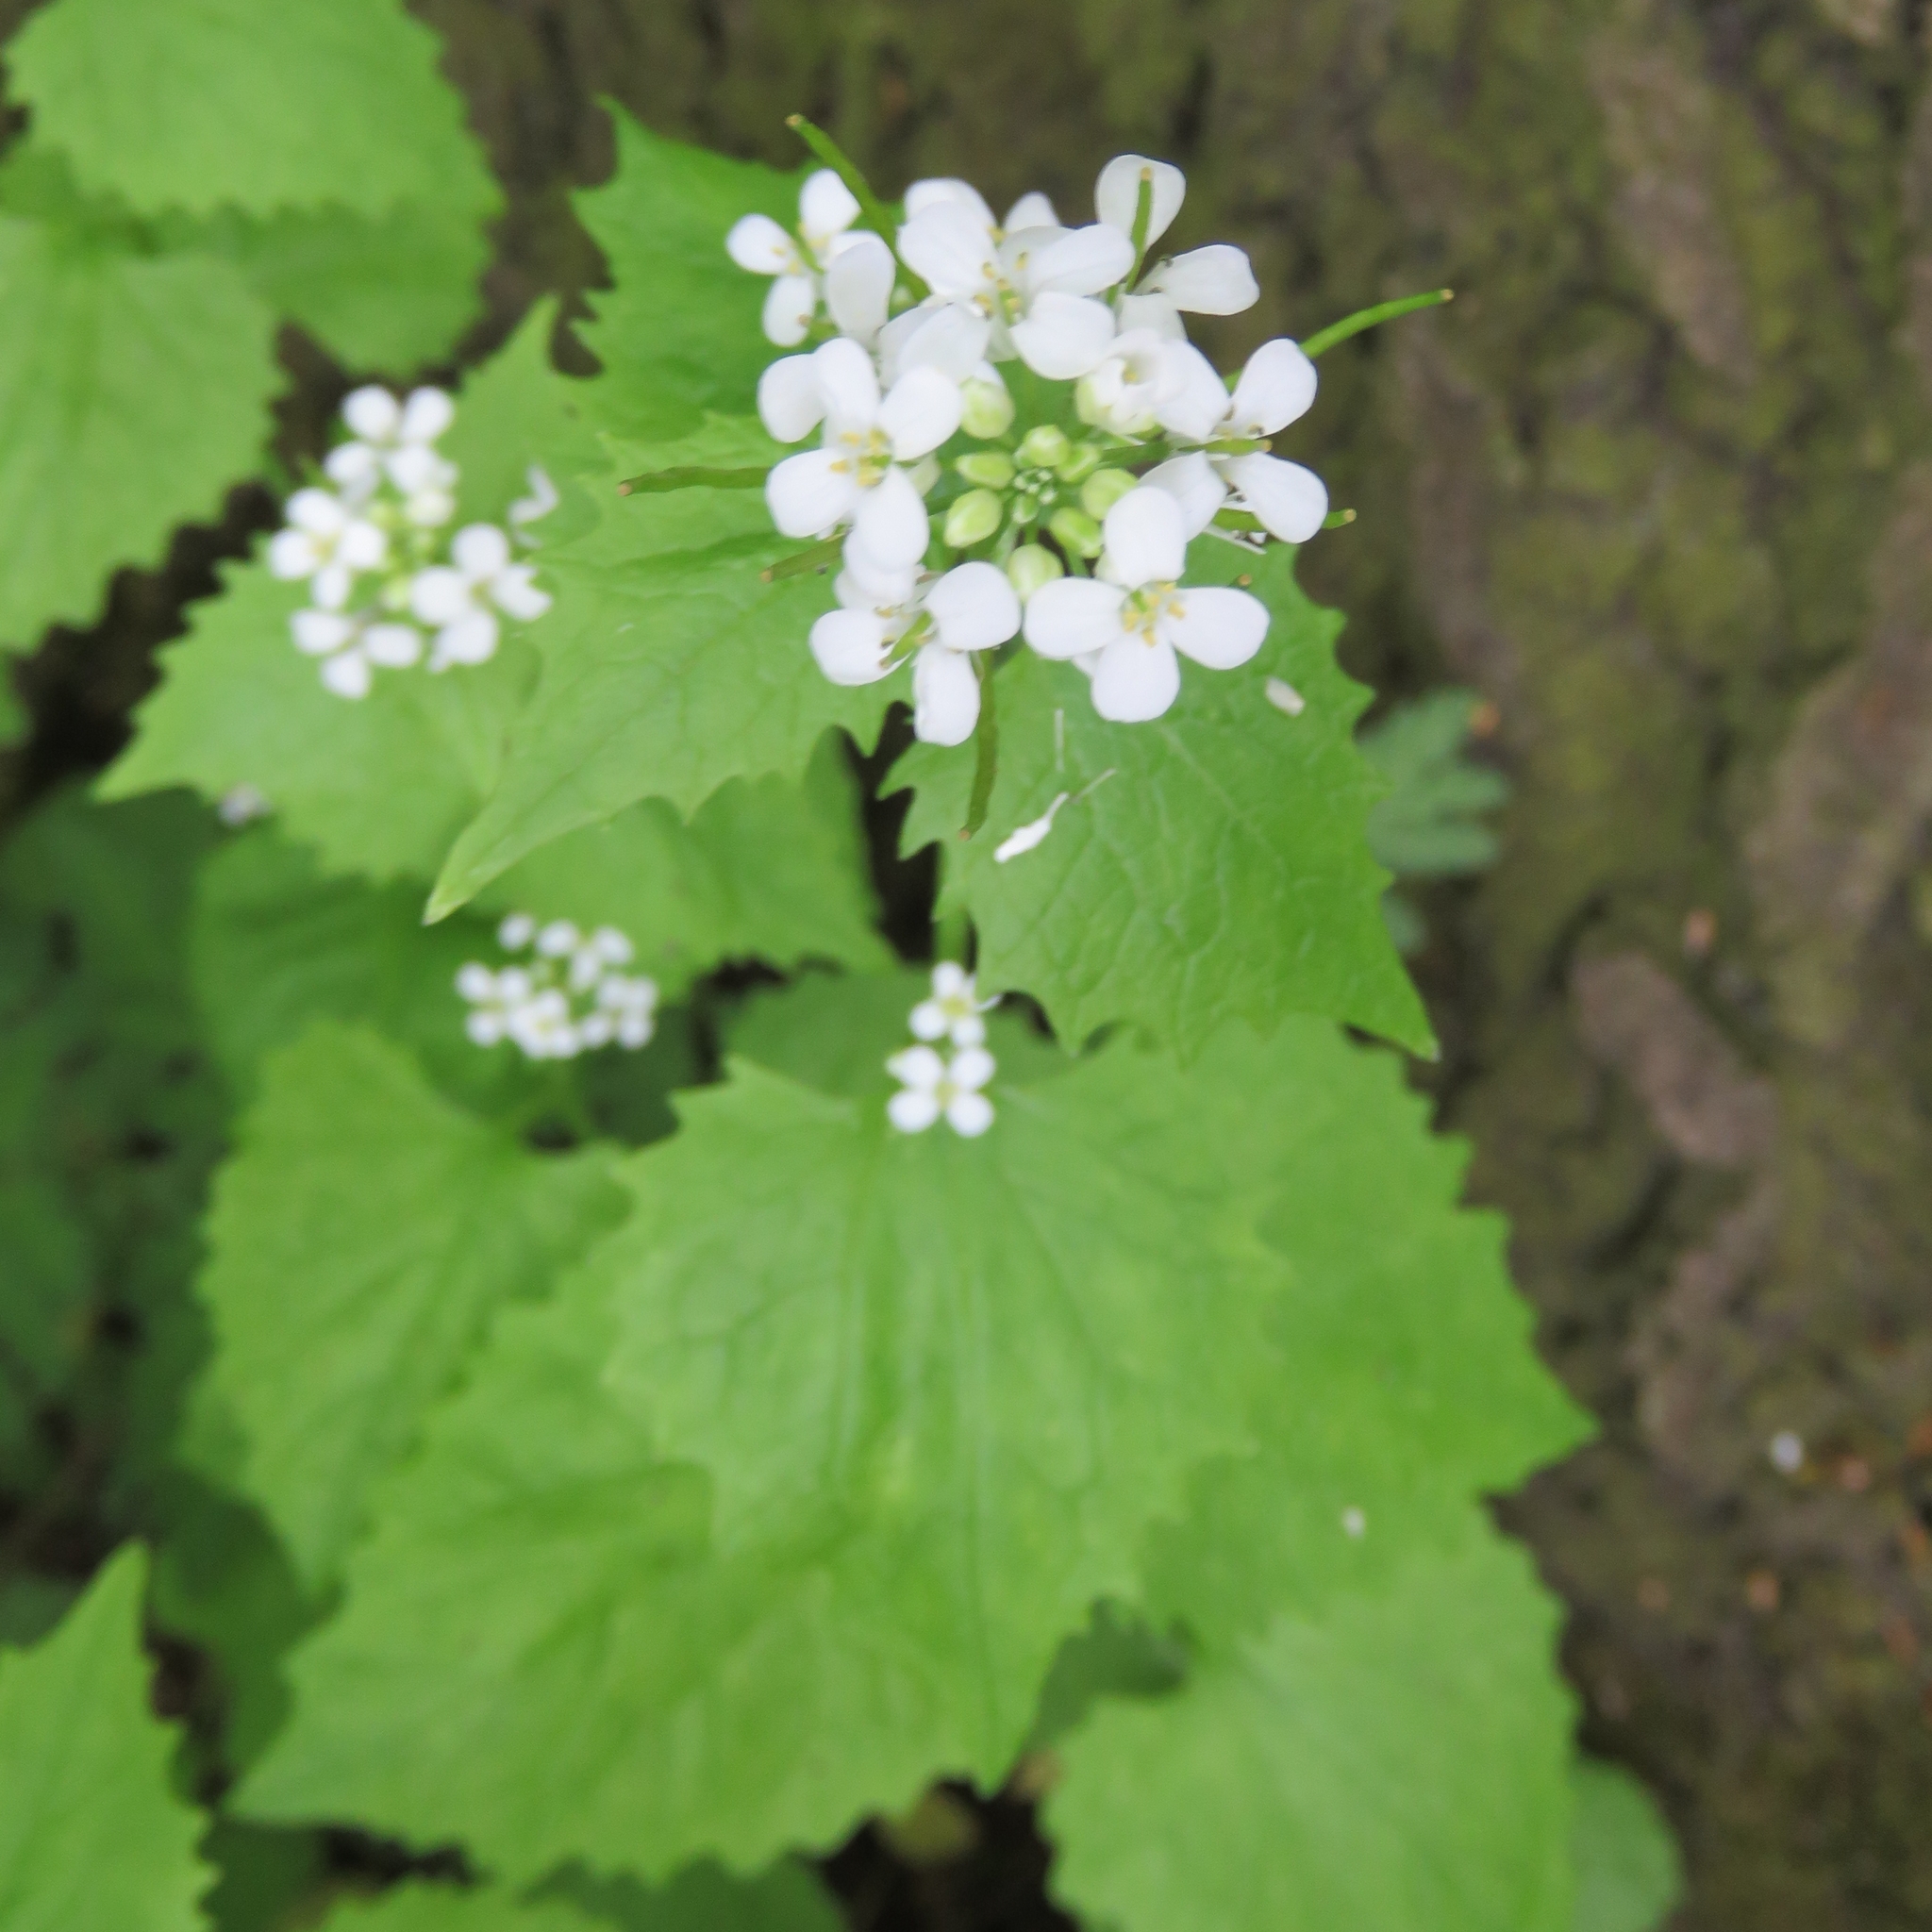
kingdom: Plantae
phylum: Tracheophyta
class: Magnoliopsida
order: Brassicales
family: Brassicaceae
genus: Alliaria
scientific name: Alliaria petiolata
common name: Garlic mustard
